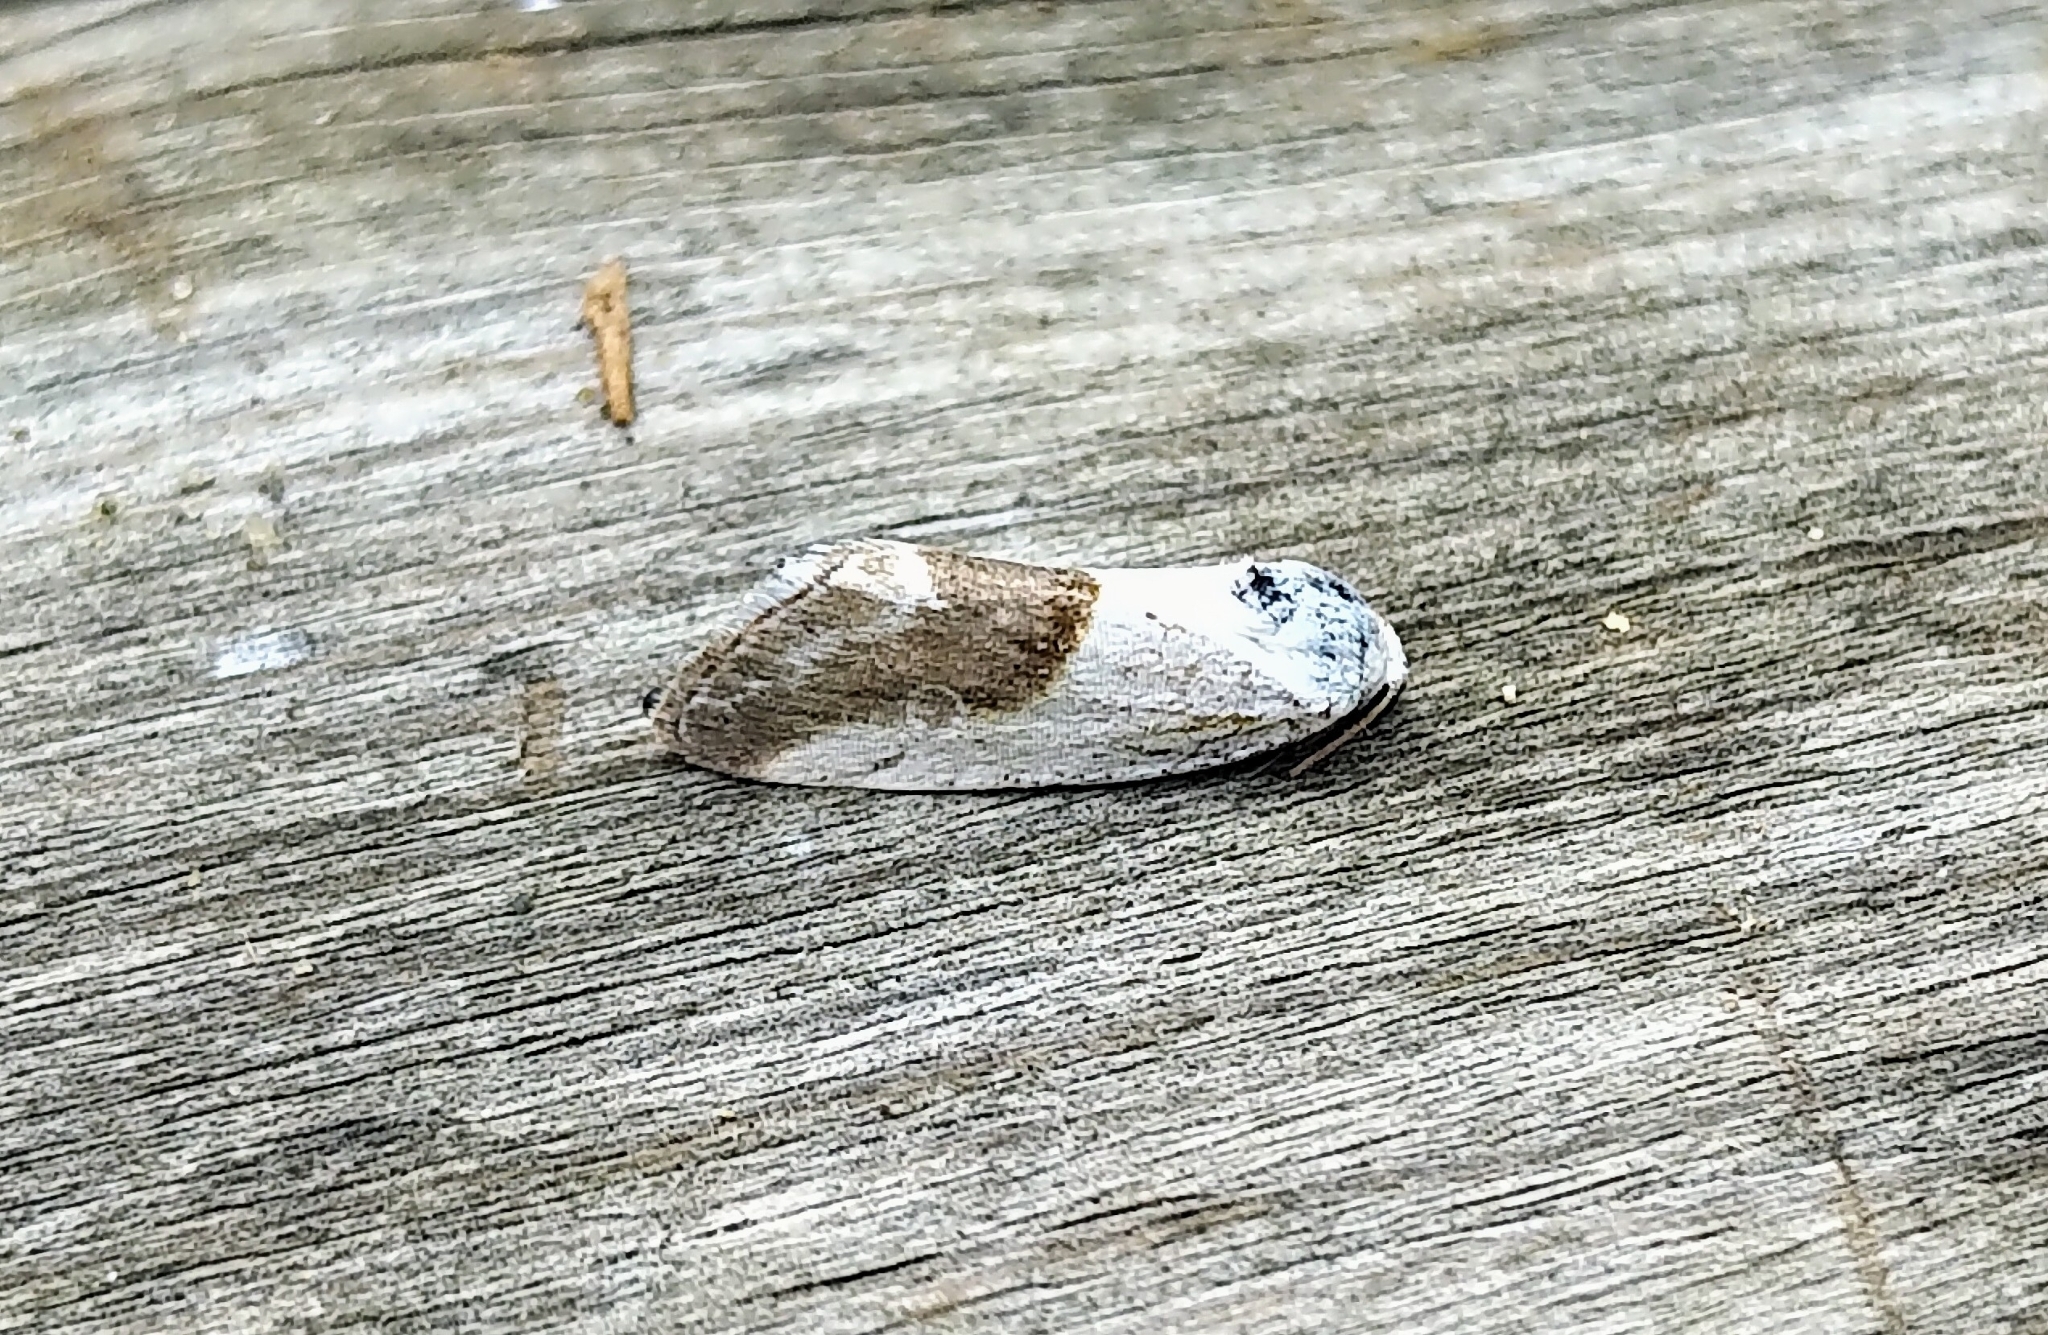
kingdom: Animalia
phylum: Arthropoda
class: Insecta
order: Lepidoptera
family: Noctuidae
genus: Acontia
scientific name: Acontia binocula
